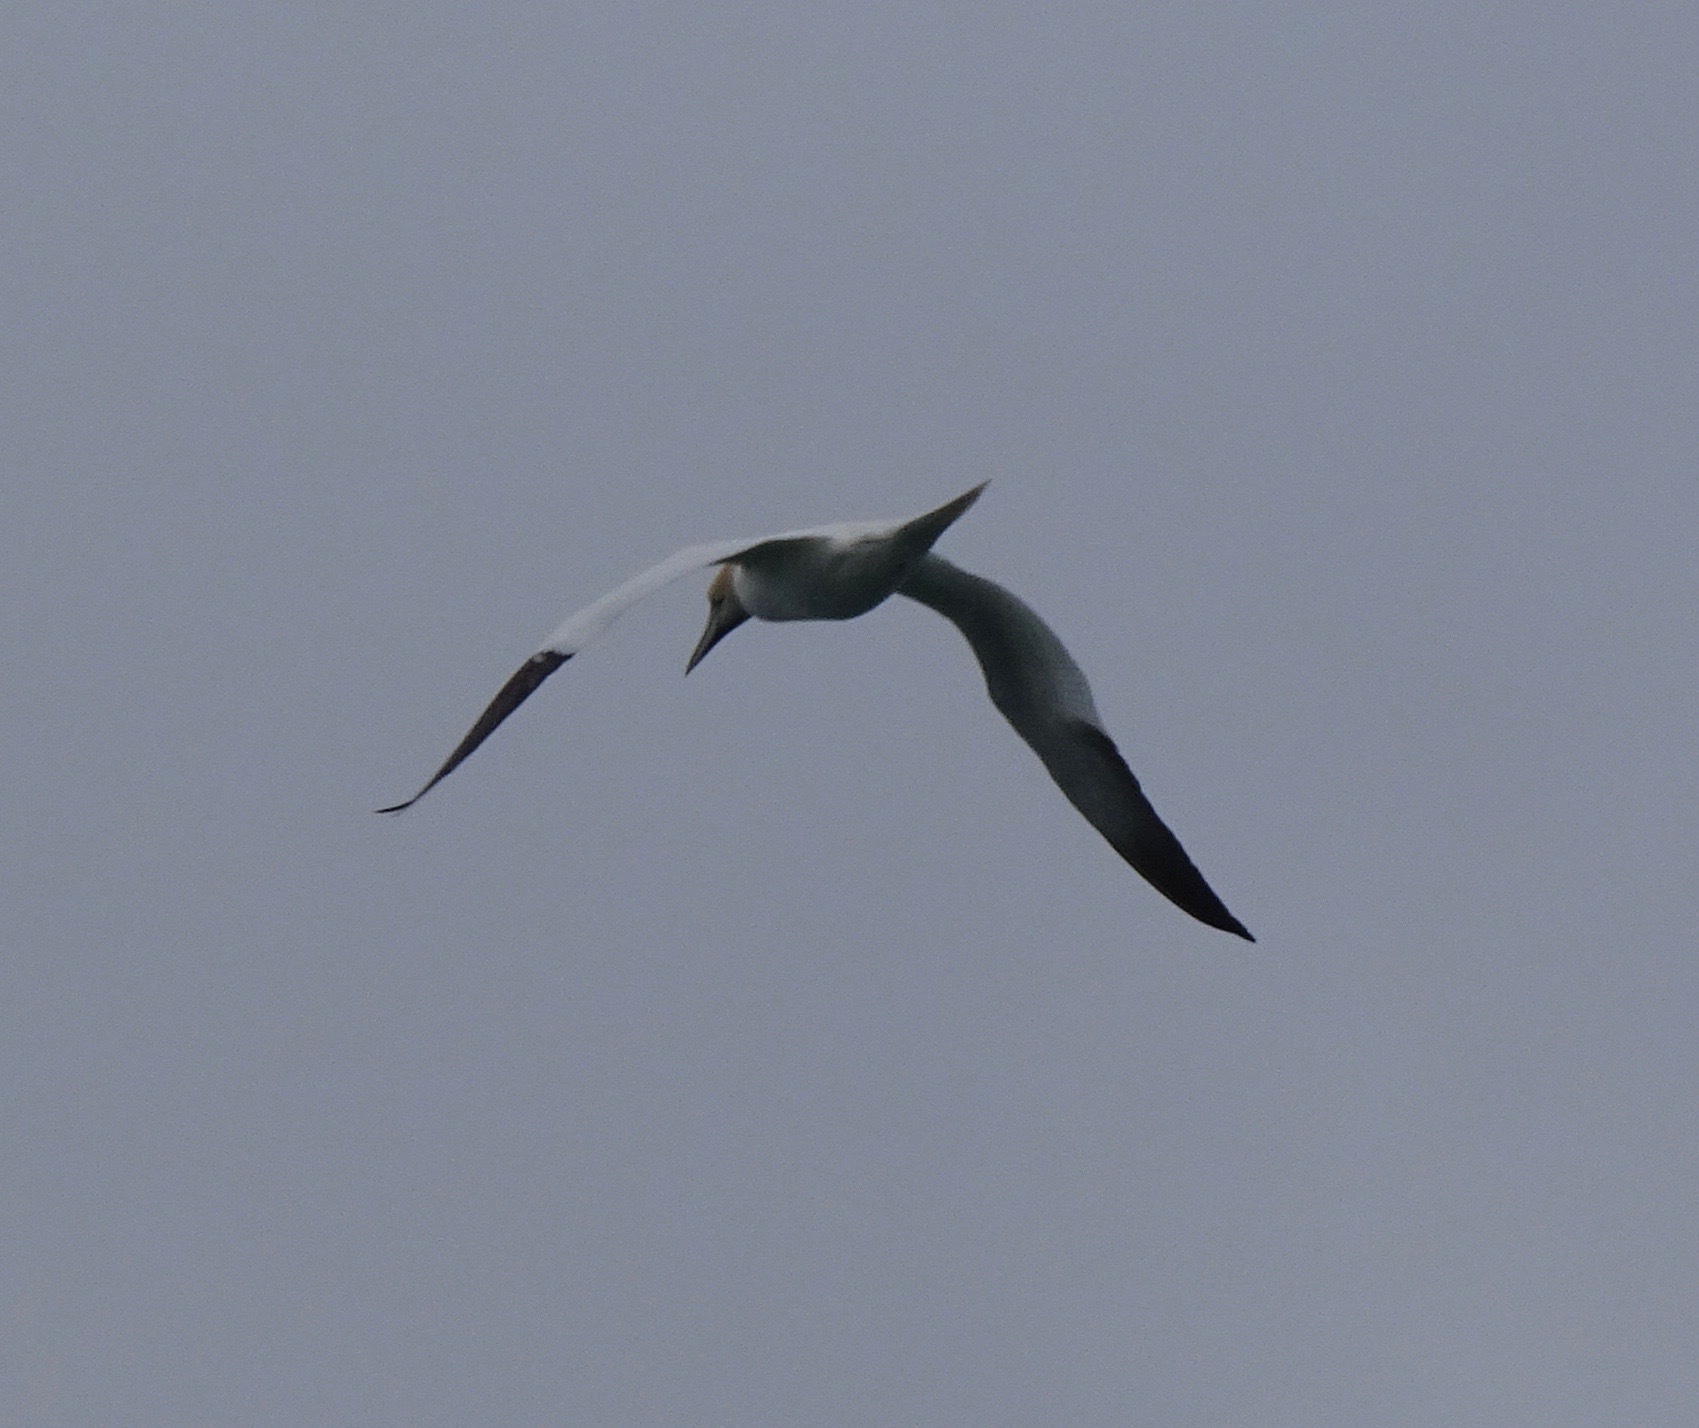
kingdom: Animalia
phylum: Chordata
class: Aves
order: Suliformes
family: Sulidae
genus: Morus
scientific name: Morus bassanus
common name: Northern gannet
